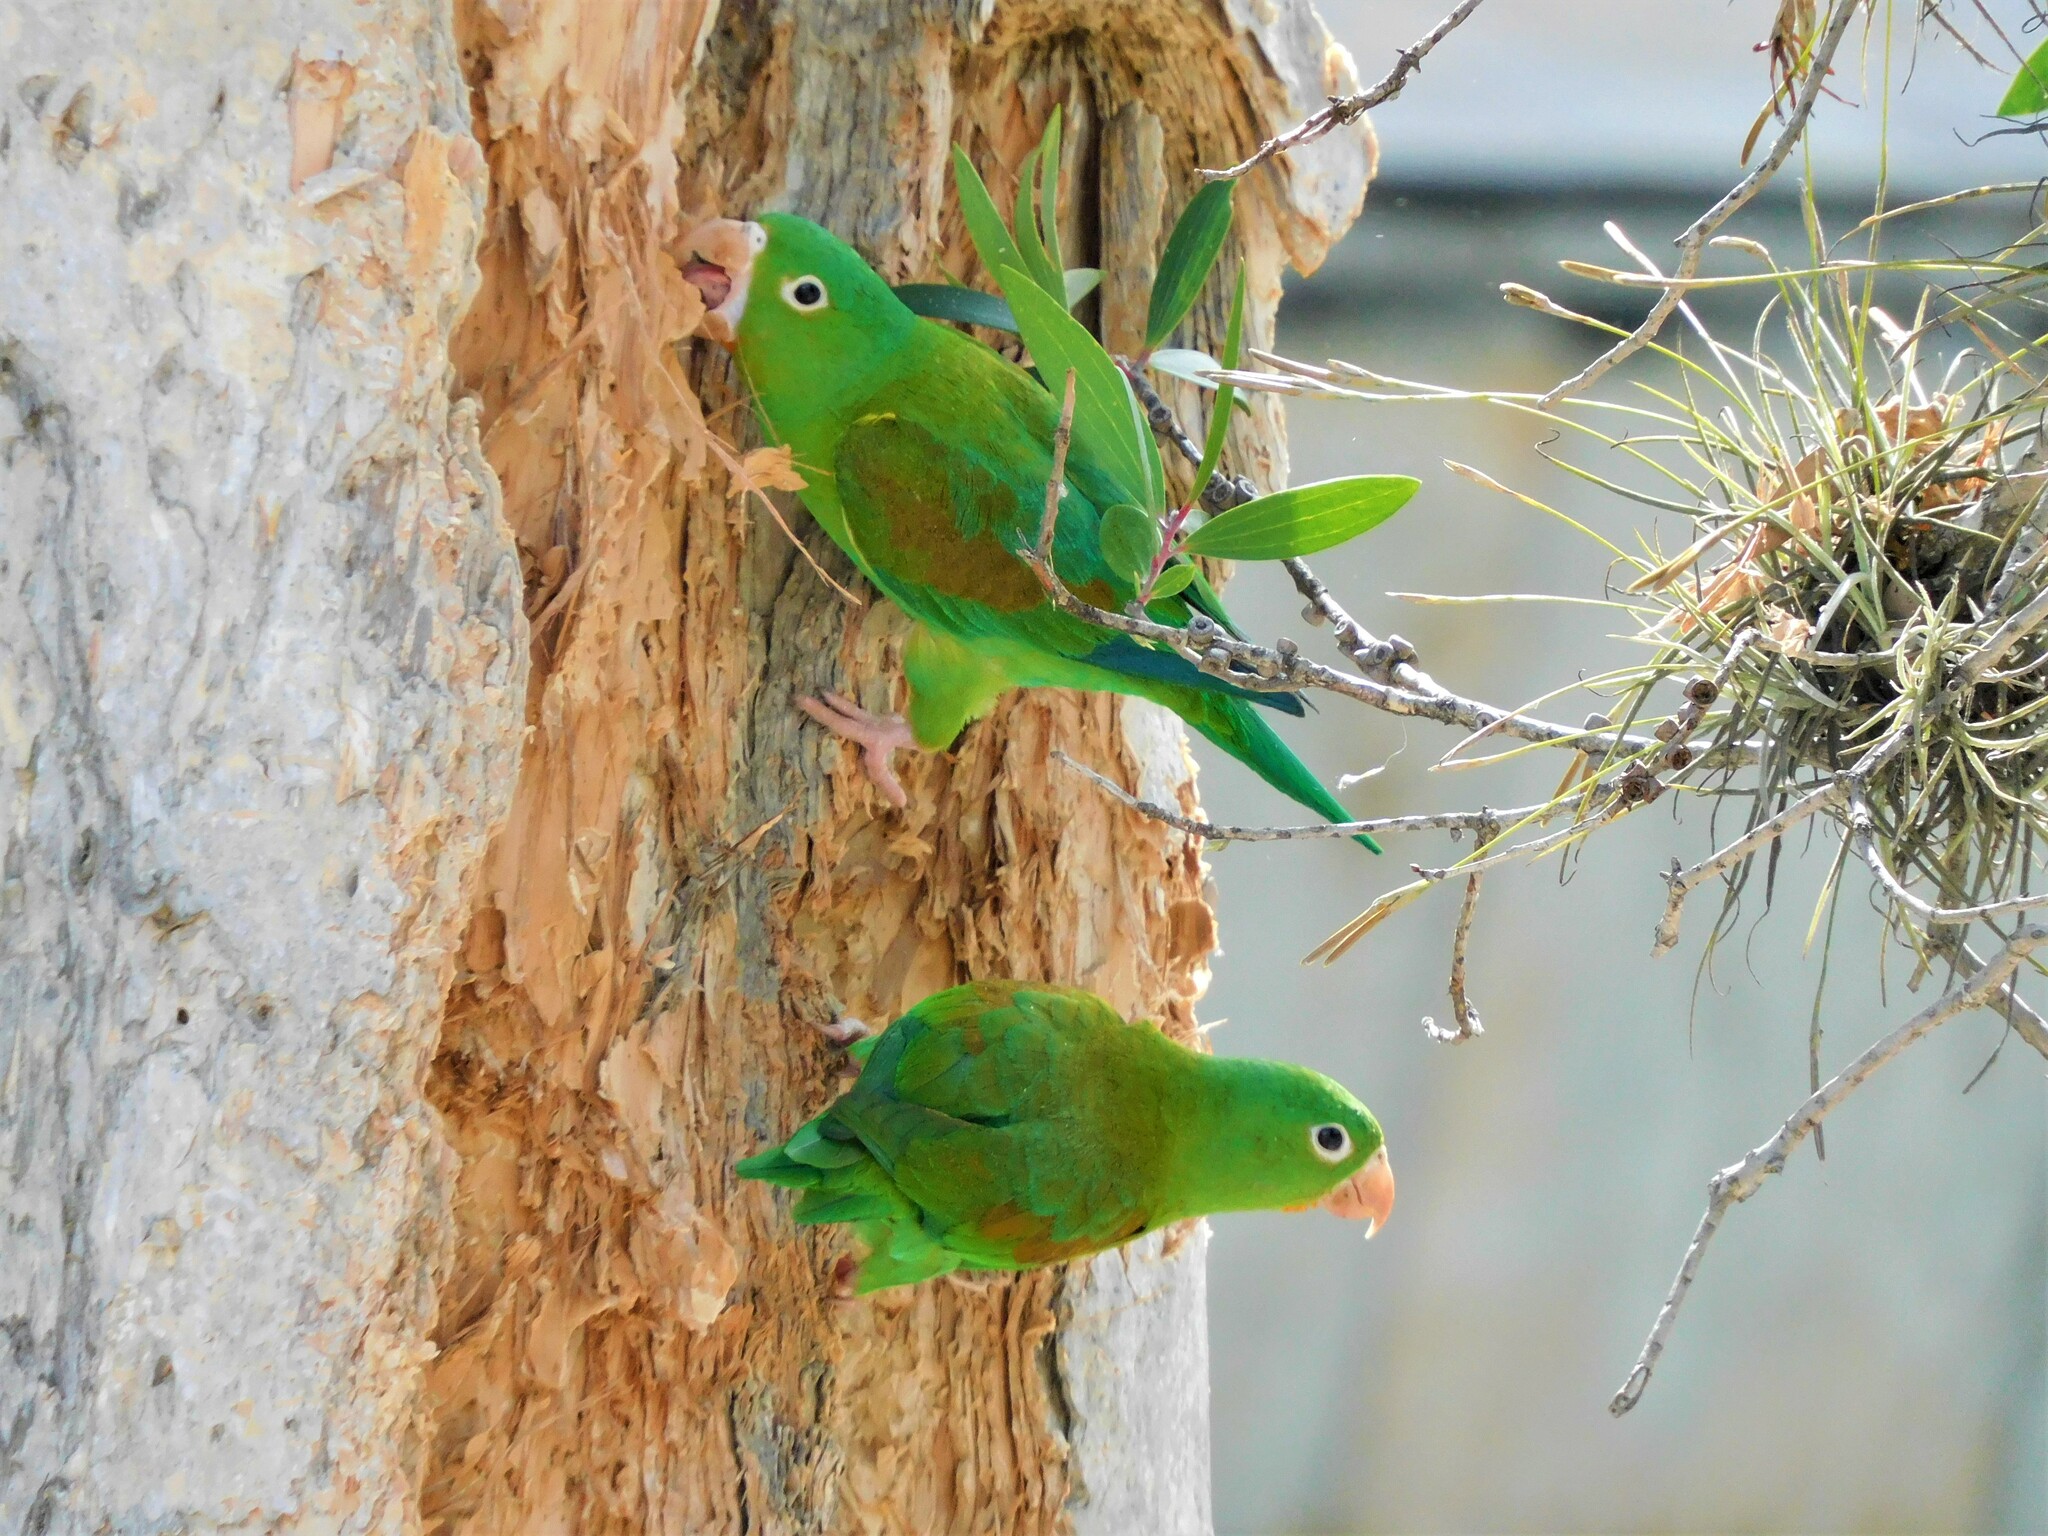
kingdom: Animalia
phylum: Chordata
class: Aves
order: Psittaciformes
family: Psittacidae
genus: Brotogeris
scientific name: Brotogeris jugularis
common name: Orange-chinned parakeet
